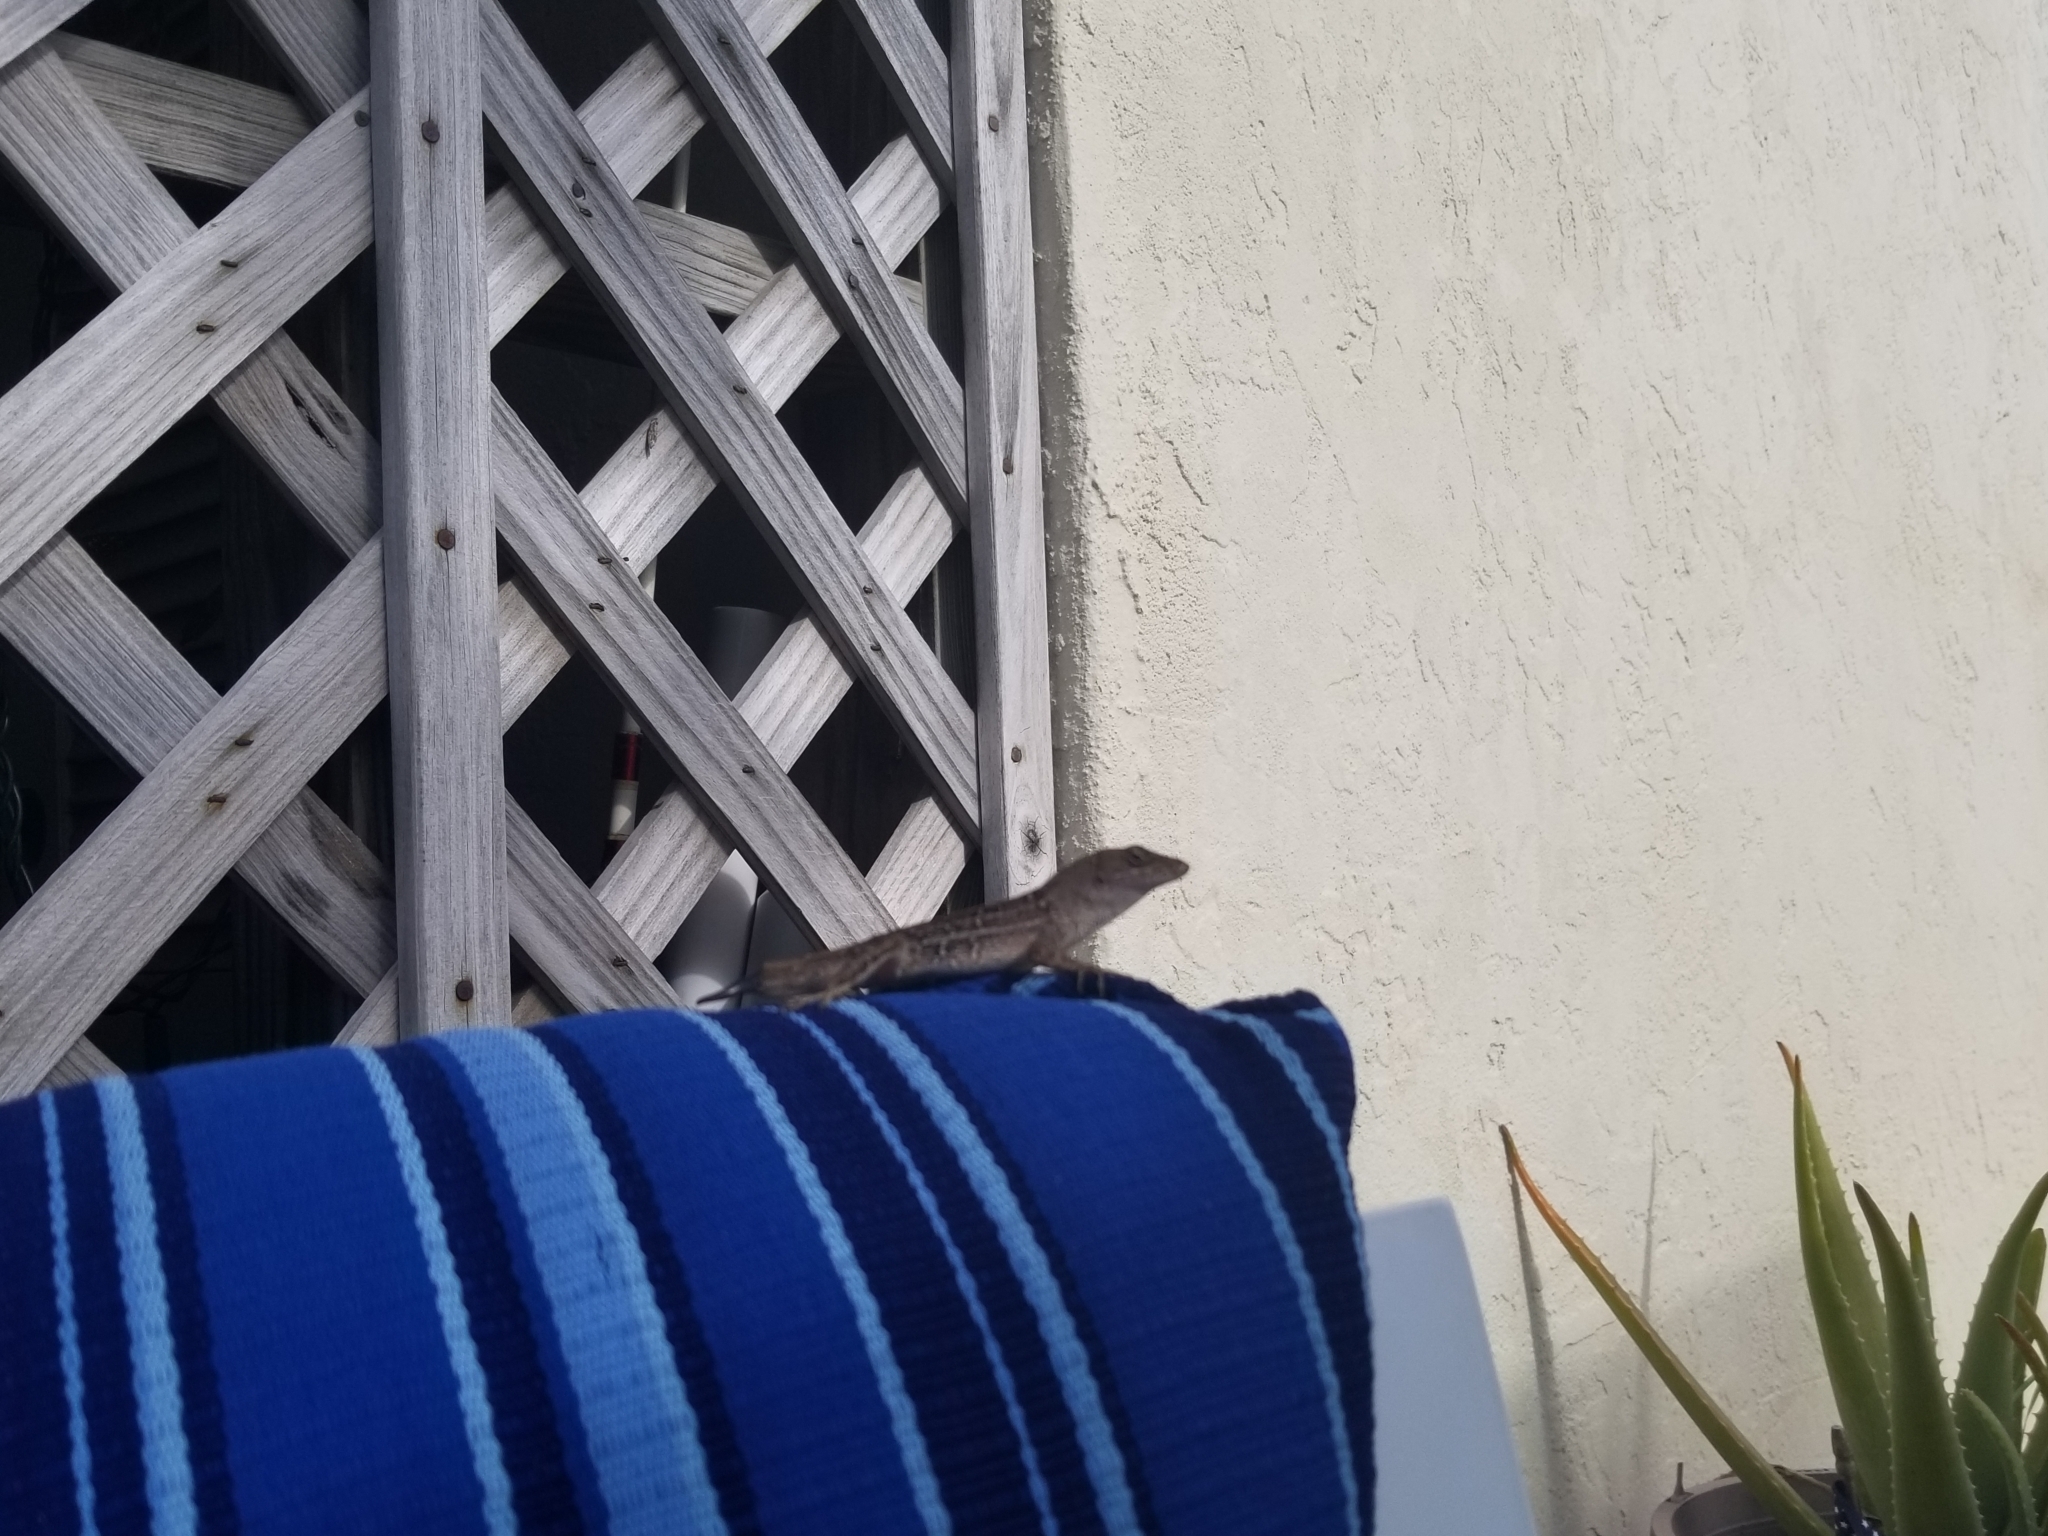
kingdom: Animalia
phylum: Chordata
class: Squamata
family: Dactyloidae
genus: Anolis
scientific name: Anolis sagrei
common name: Brown anole
